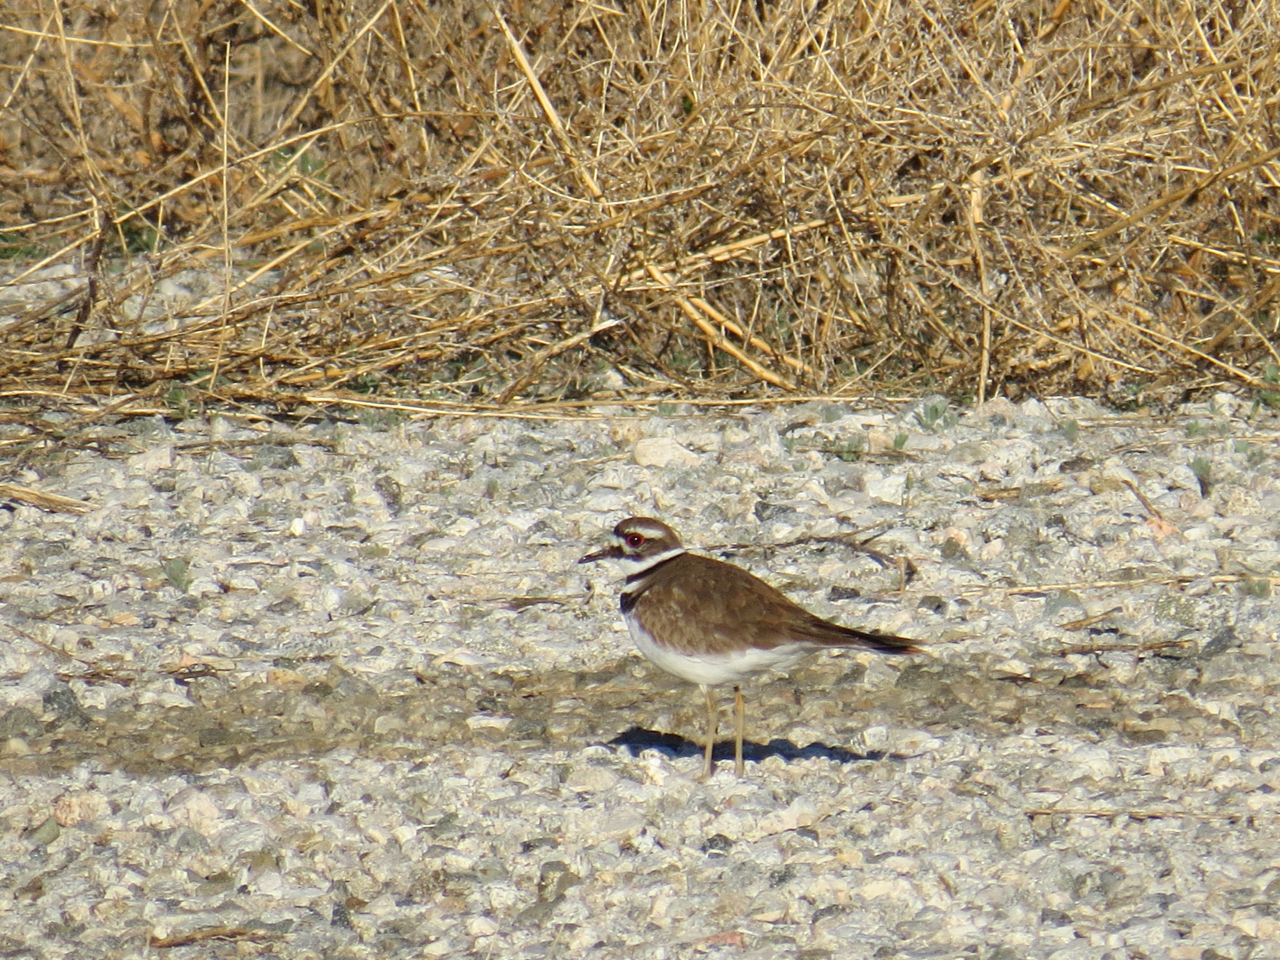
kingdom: Animalia
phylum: Chordata
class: Aves
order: Charadriiformes
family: Charadriidae
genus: Charadrius
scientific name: Charadrius vociferus
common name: Killdeer
